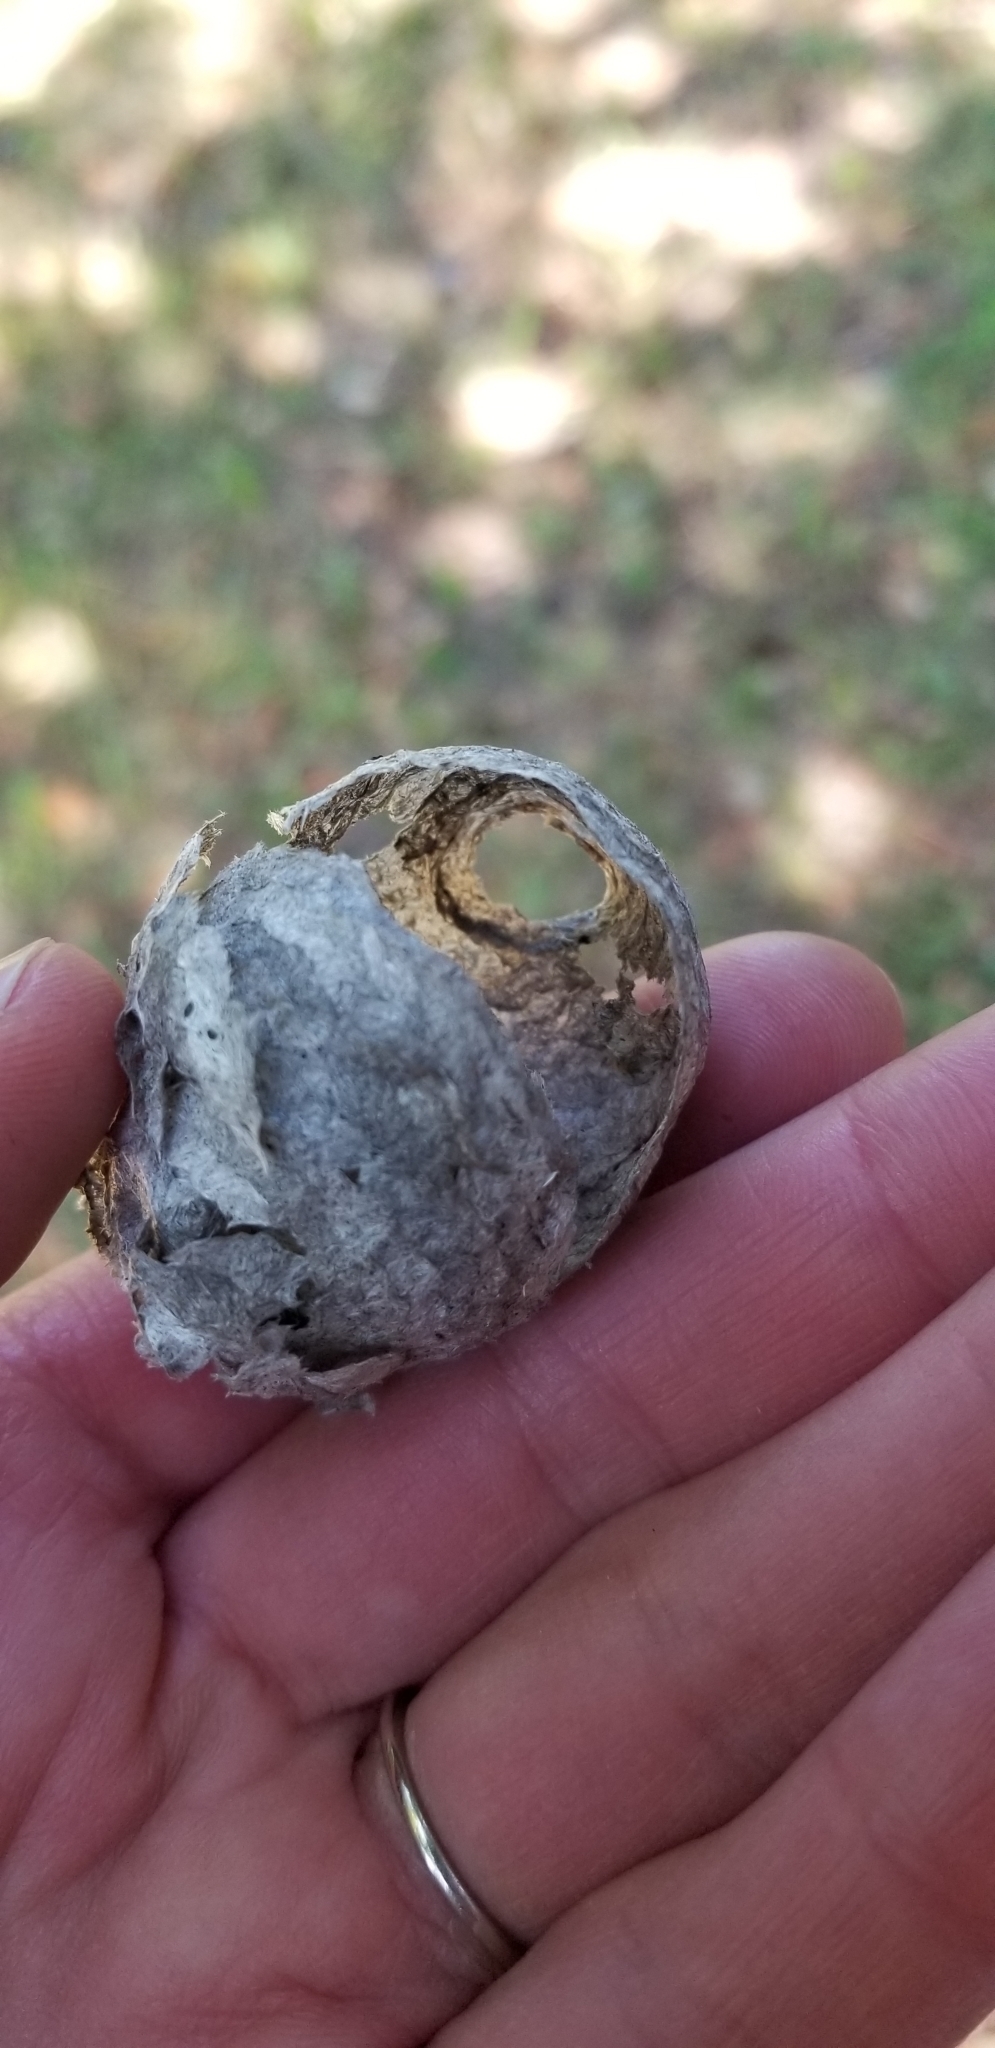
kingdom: Animalia
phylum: Arthropoda
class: Insecta
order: Hymenoptera
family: Vespidae
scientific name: Vespidae
